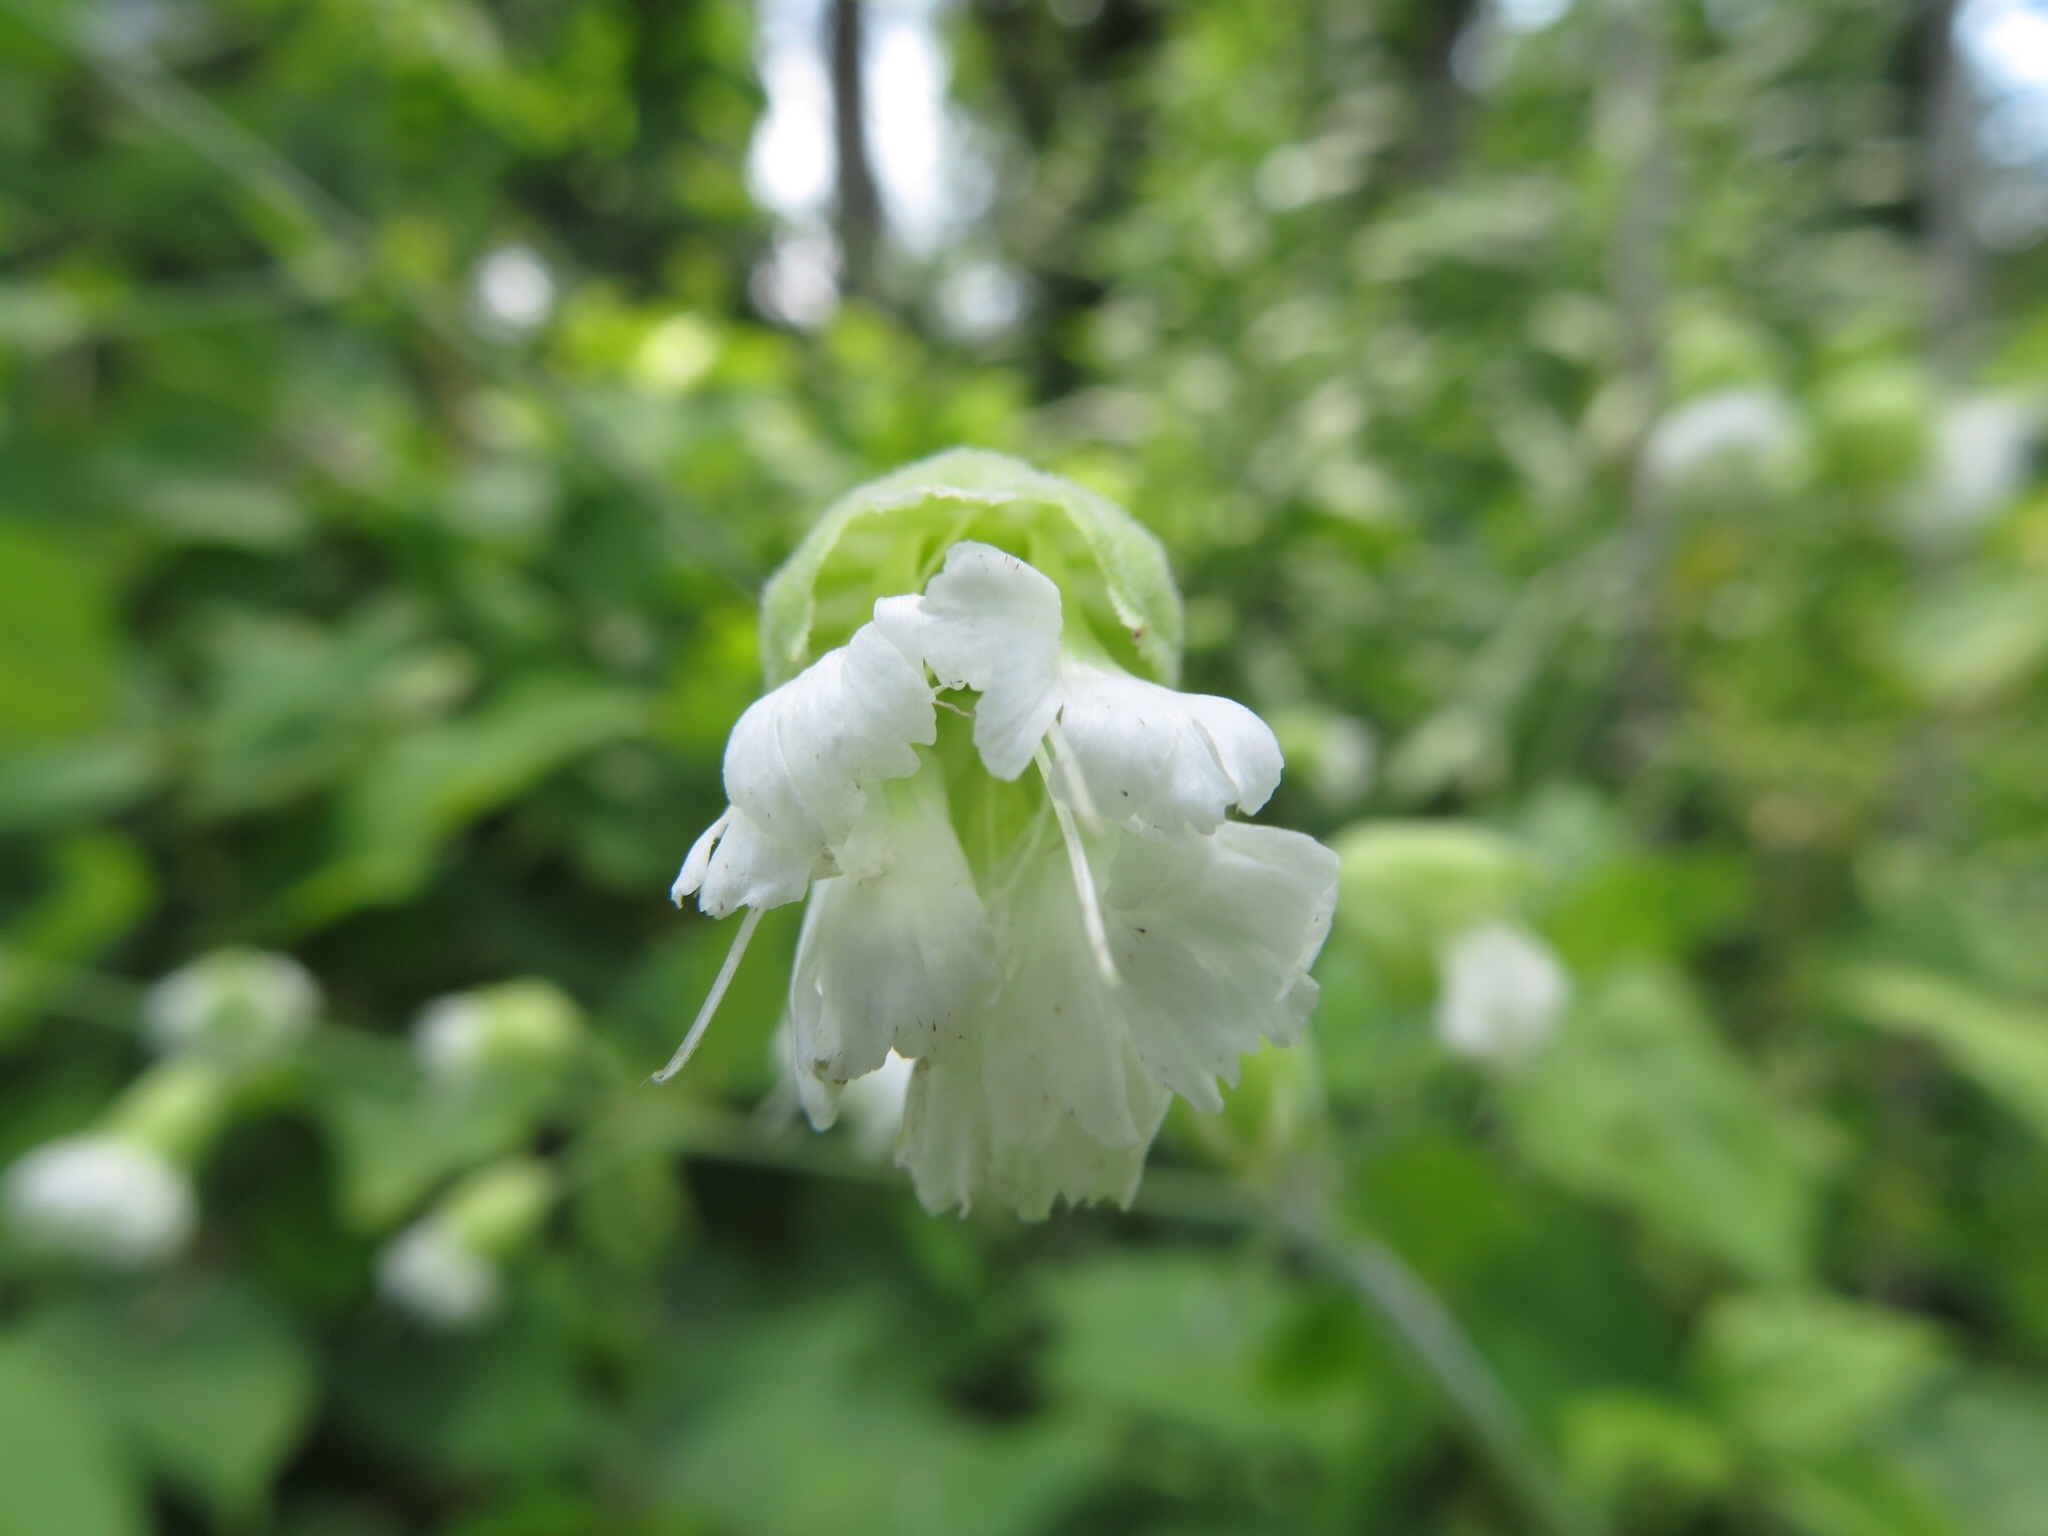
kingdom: Plantae
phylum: Tracheophyta
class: Magnoliopsida
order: Caryophyllales
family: Caryophyllaceae
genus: Silene
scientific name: Silene stellata
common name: Starry campion
